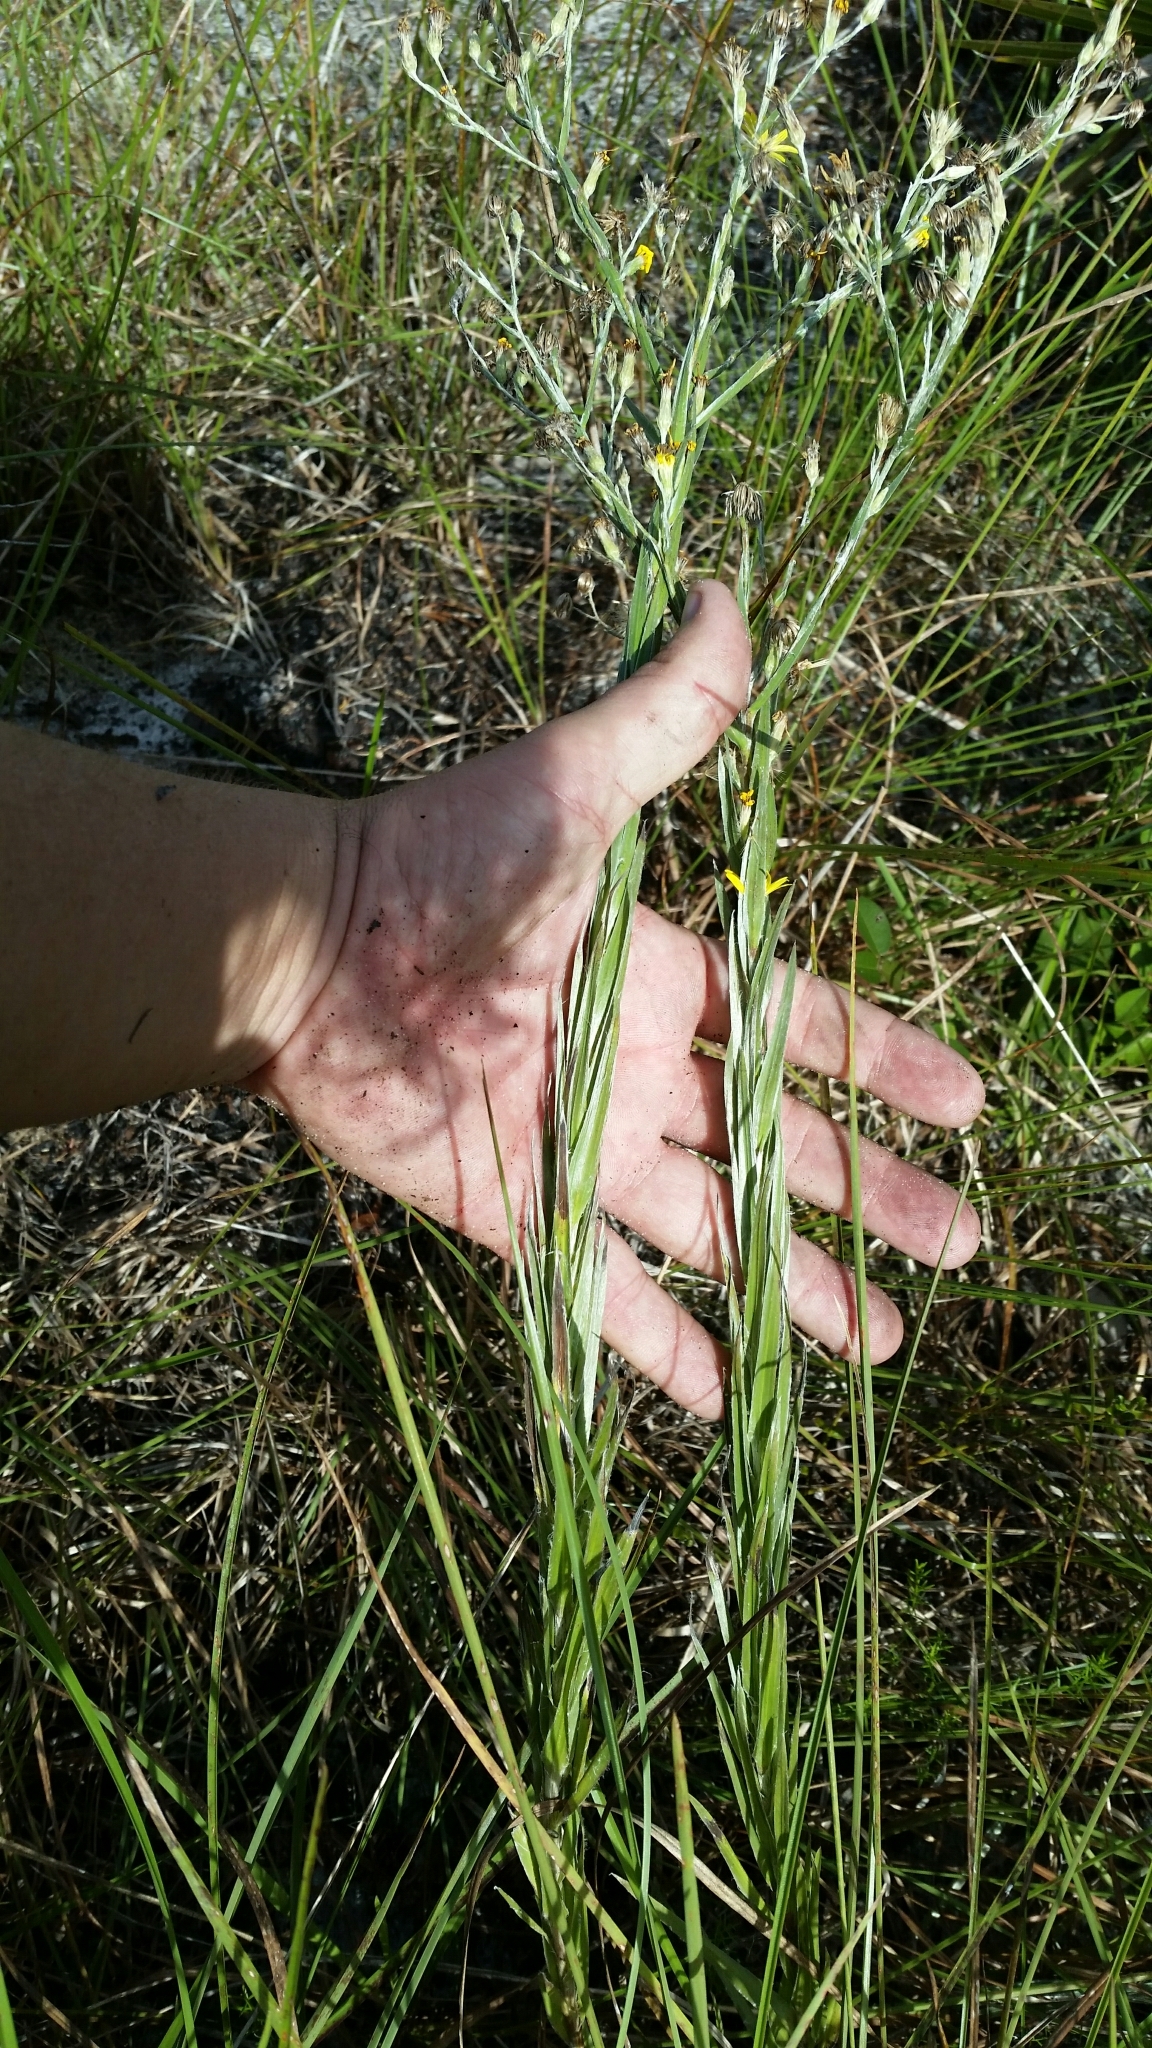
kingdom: Plantae
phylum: Tracheophyta
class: Magnoliopsida
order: Asterales
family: Asteraceae
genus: Pityopsis
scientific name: Pityopsis graminifolia
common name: Grass-leaf golden-aster
